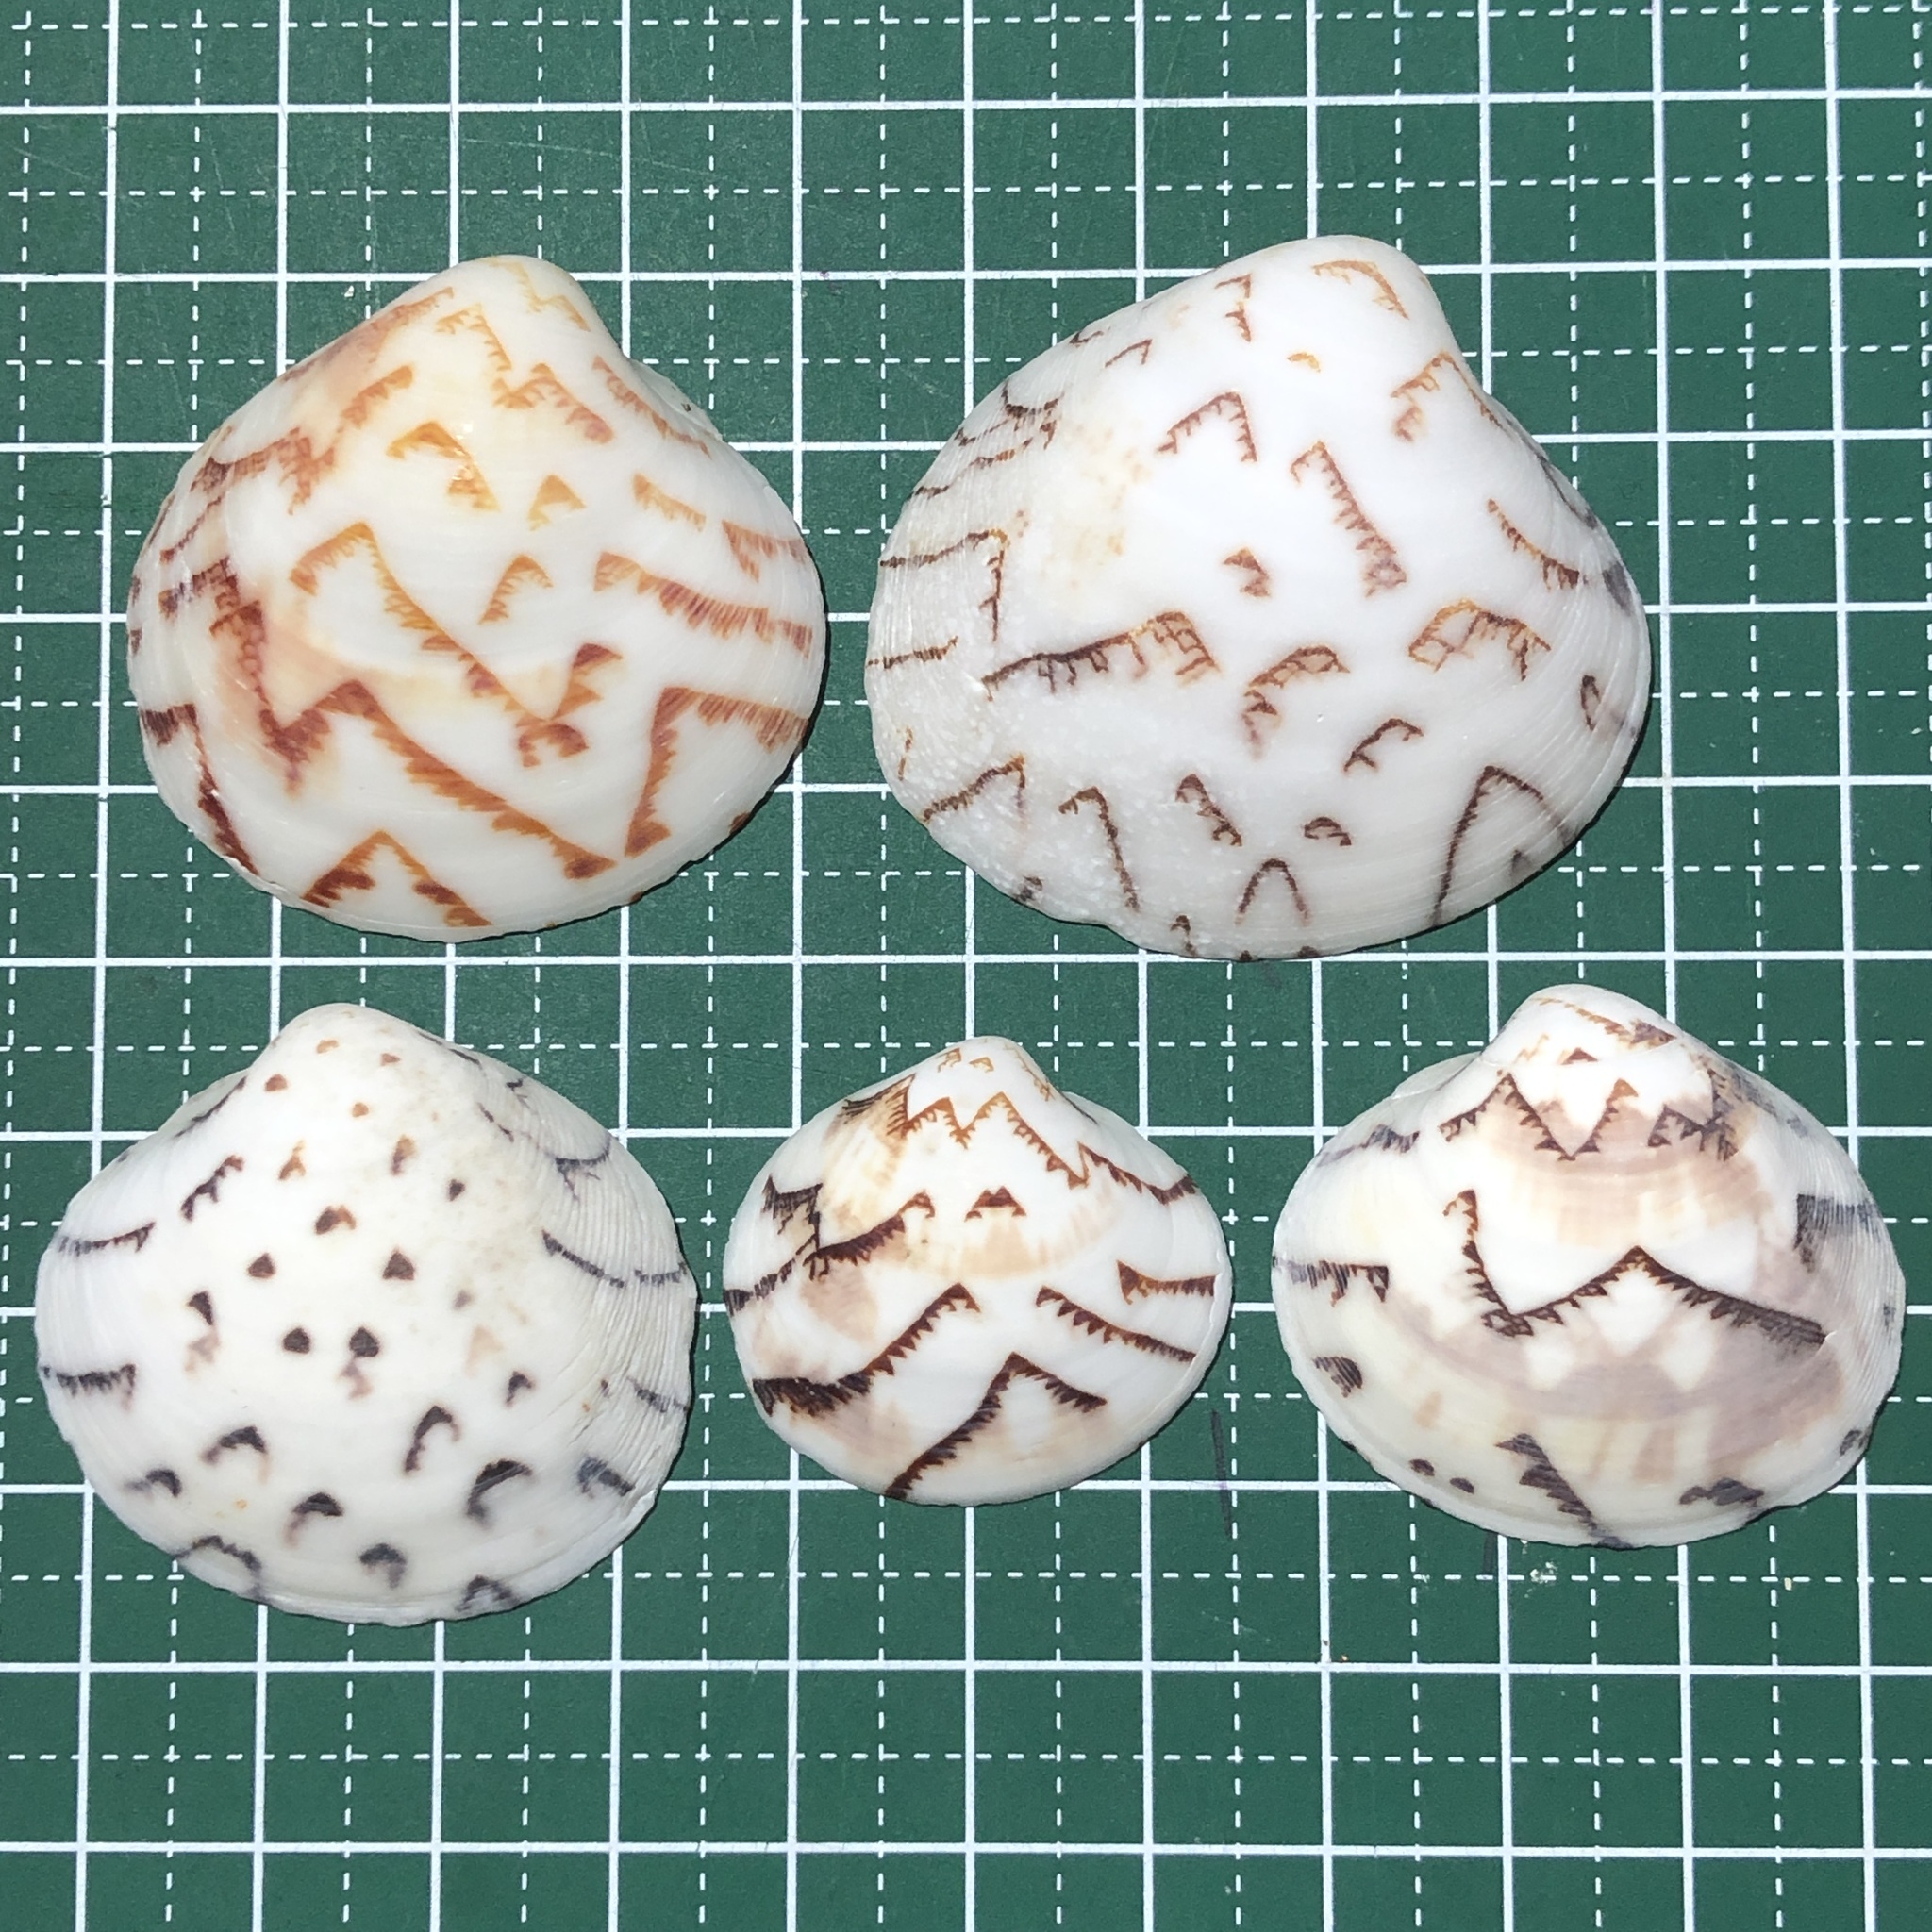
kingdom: Animalia
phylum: Mollusca
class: Bivalvia
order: Venerida
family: Veneridae
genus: Lioconcha
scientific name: Lioconcha castrensis
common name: Camp pitar-venus
